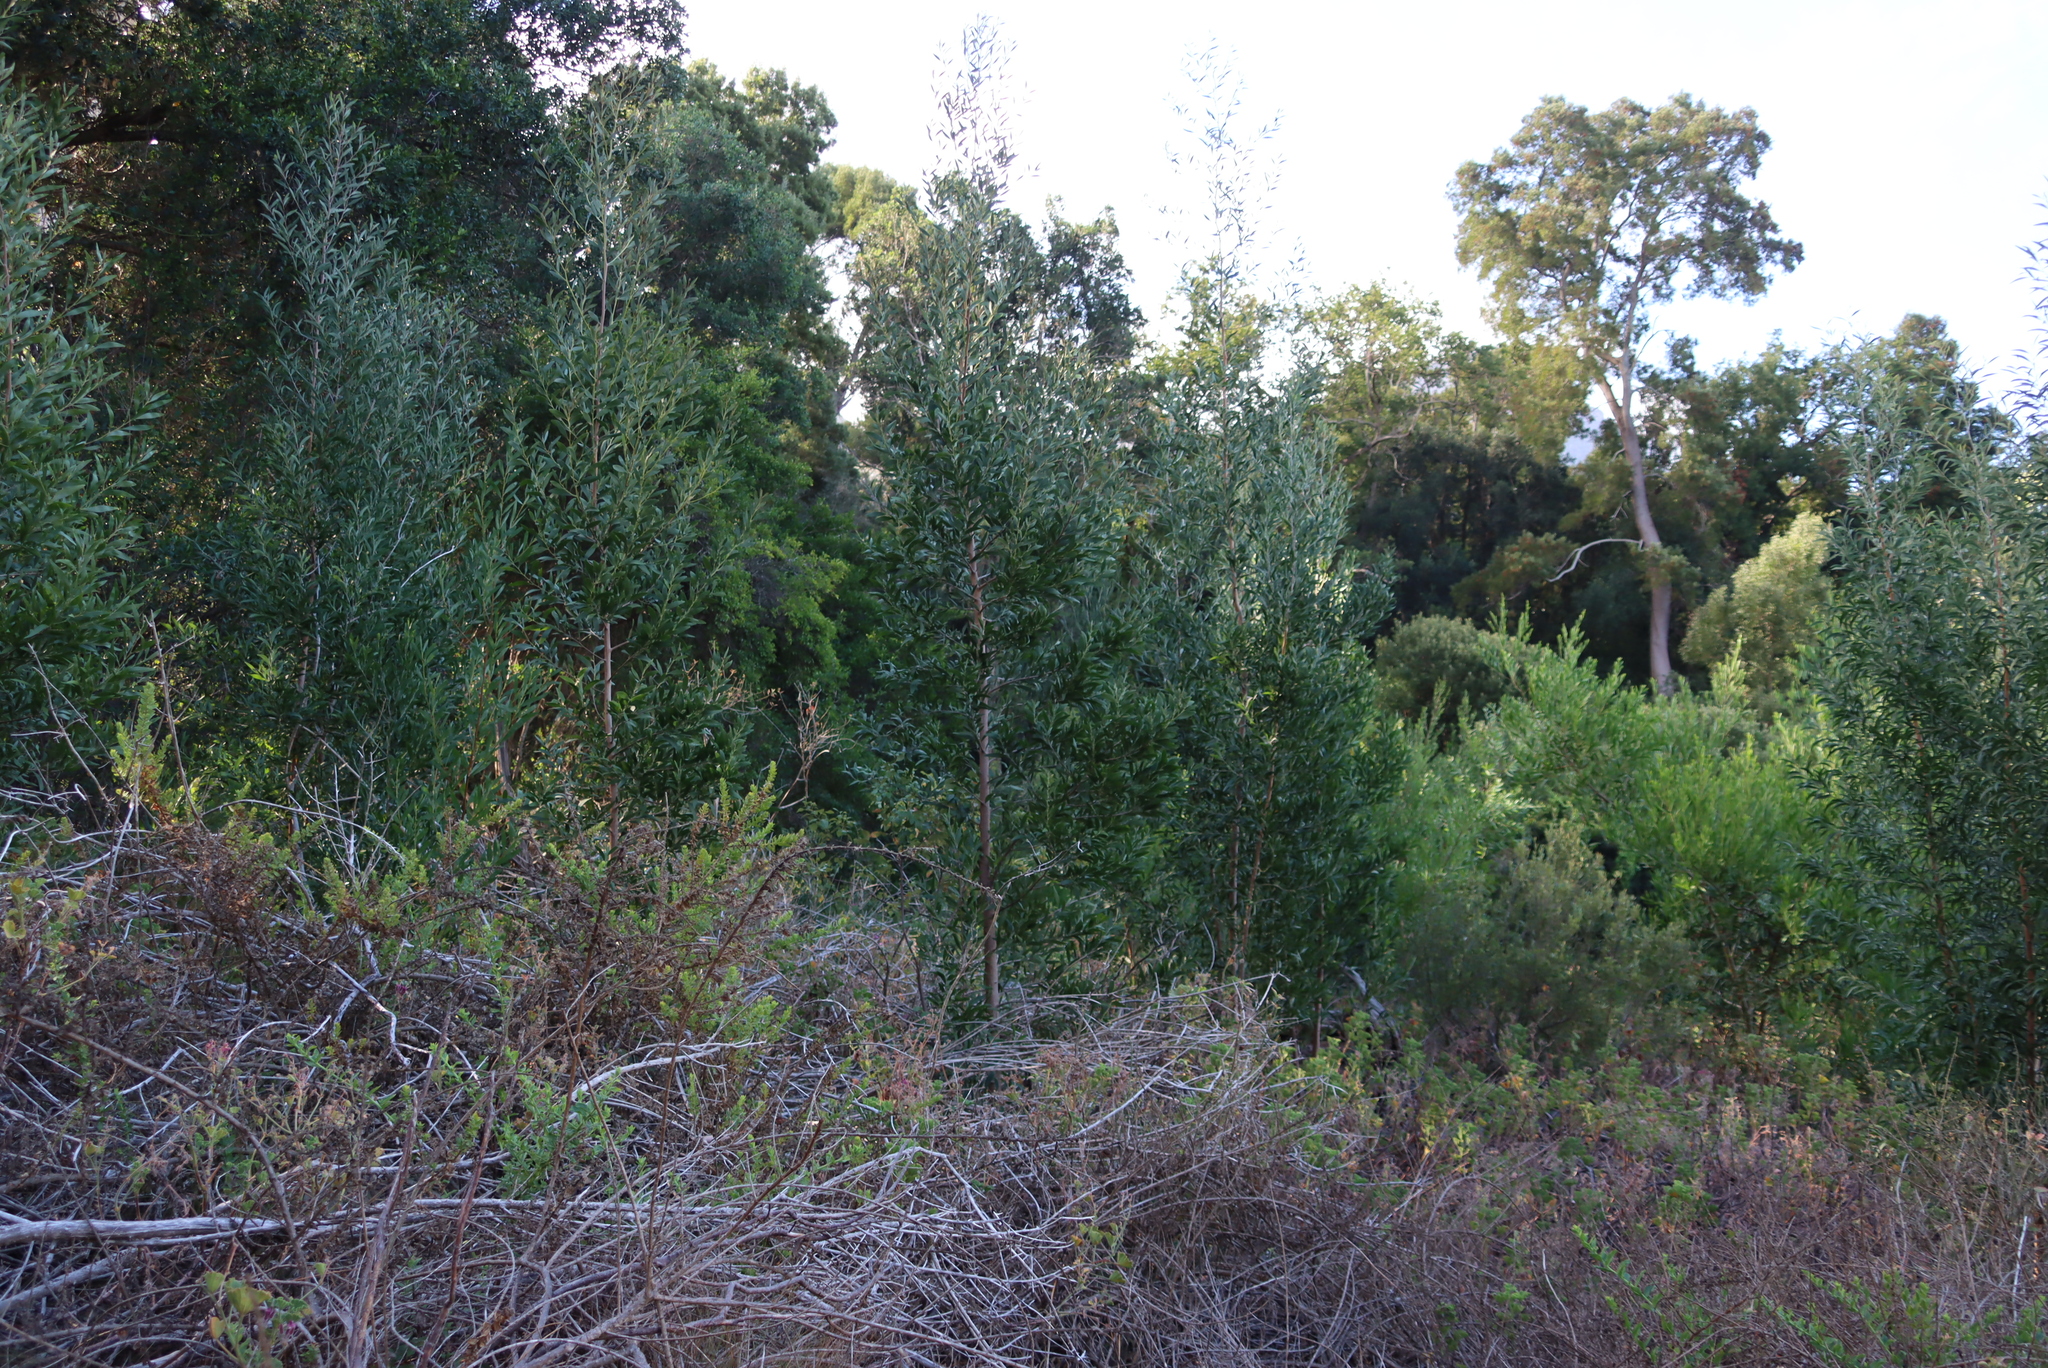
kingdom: Plantae
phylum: Tracheophyta
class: Magnoliopsida
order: Fabales
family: Fabaceae
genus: Acacia
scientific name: Acacia melanoxylon
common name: Blackwood
